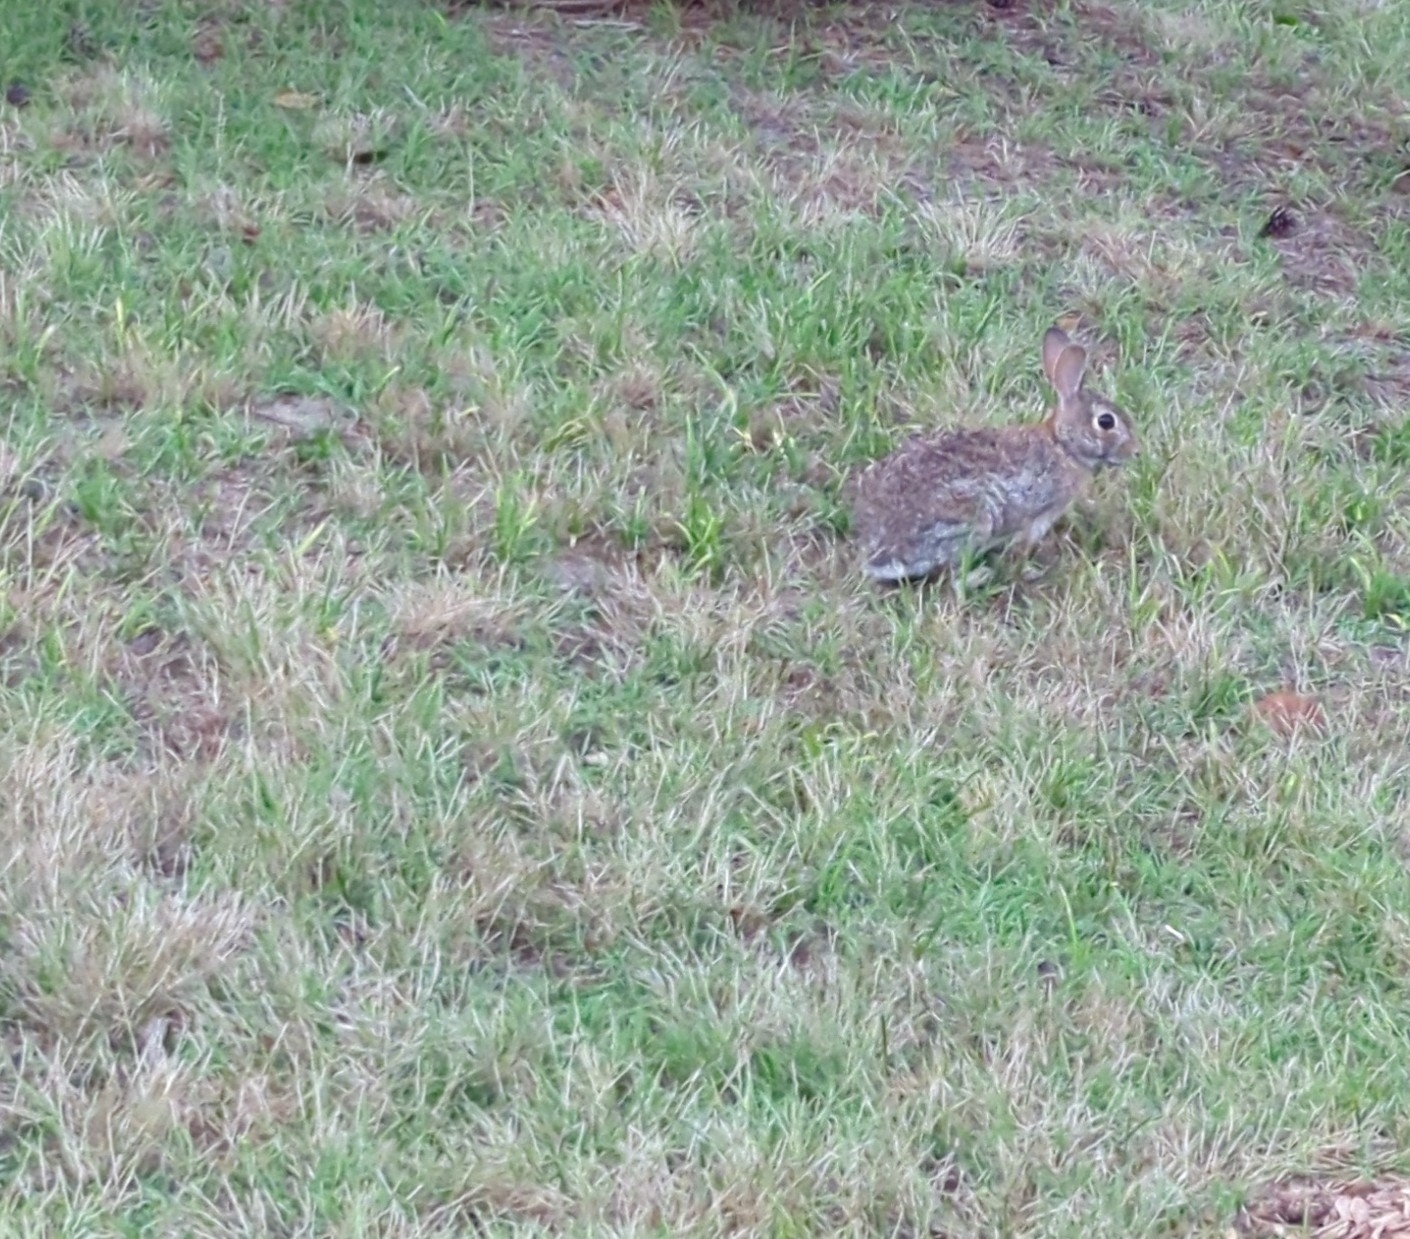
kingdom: Animalia
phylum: Chordata
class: Mammalia
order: Lagomorpha
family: Leporidae
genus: Sylvilagus
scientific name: Sylvilagus floridanus
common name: Eastern cottontail
